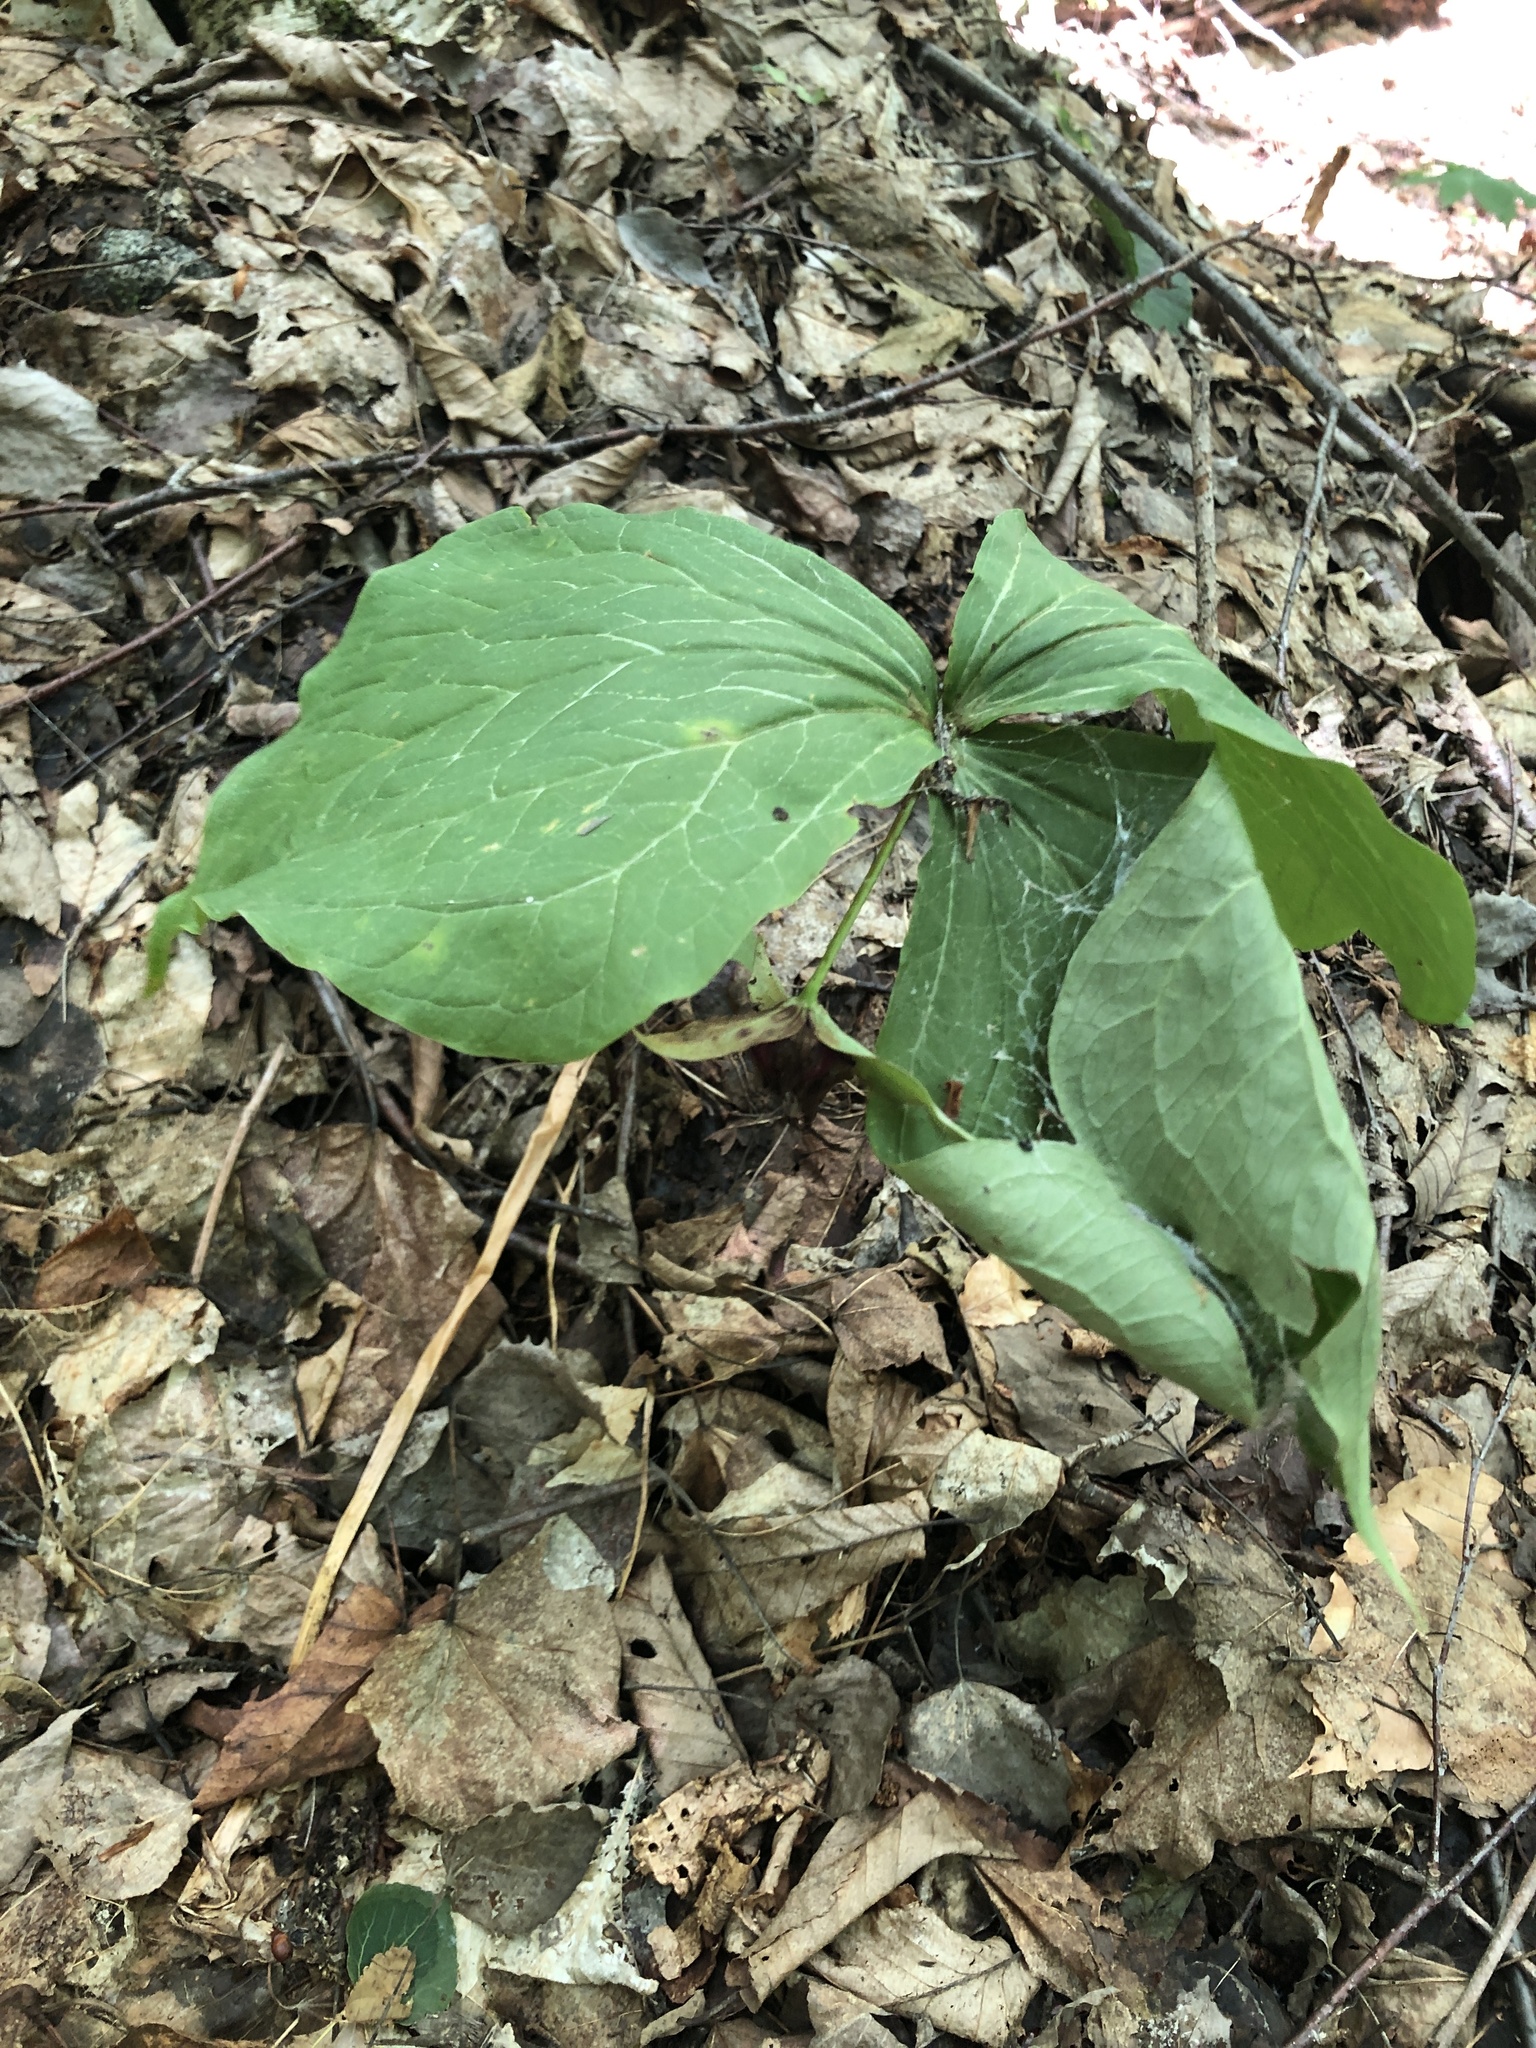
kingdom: Plantae
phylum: Tracheophyta
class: Liliopsida
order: Liliales
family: Melanthiaceae
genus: Trillium
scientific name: Trillium erectum
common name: Purple trillium
